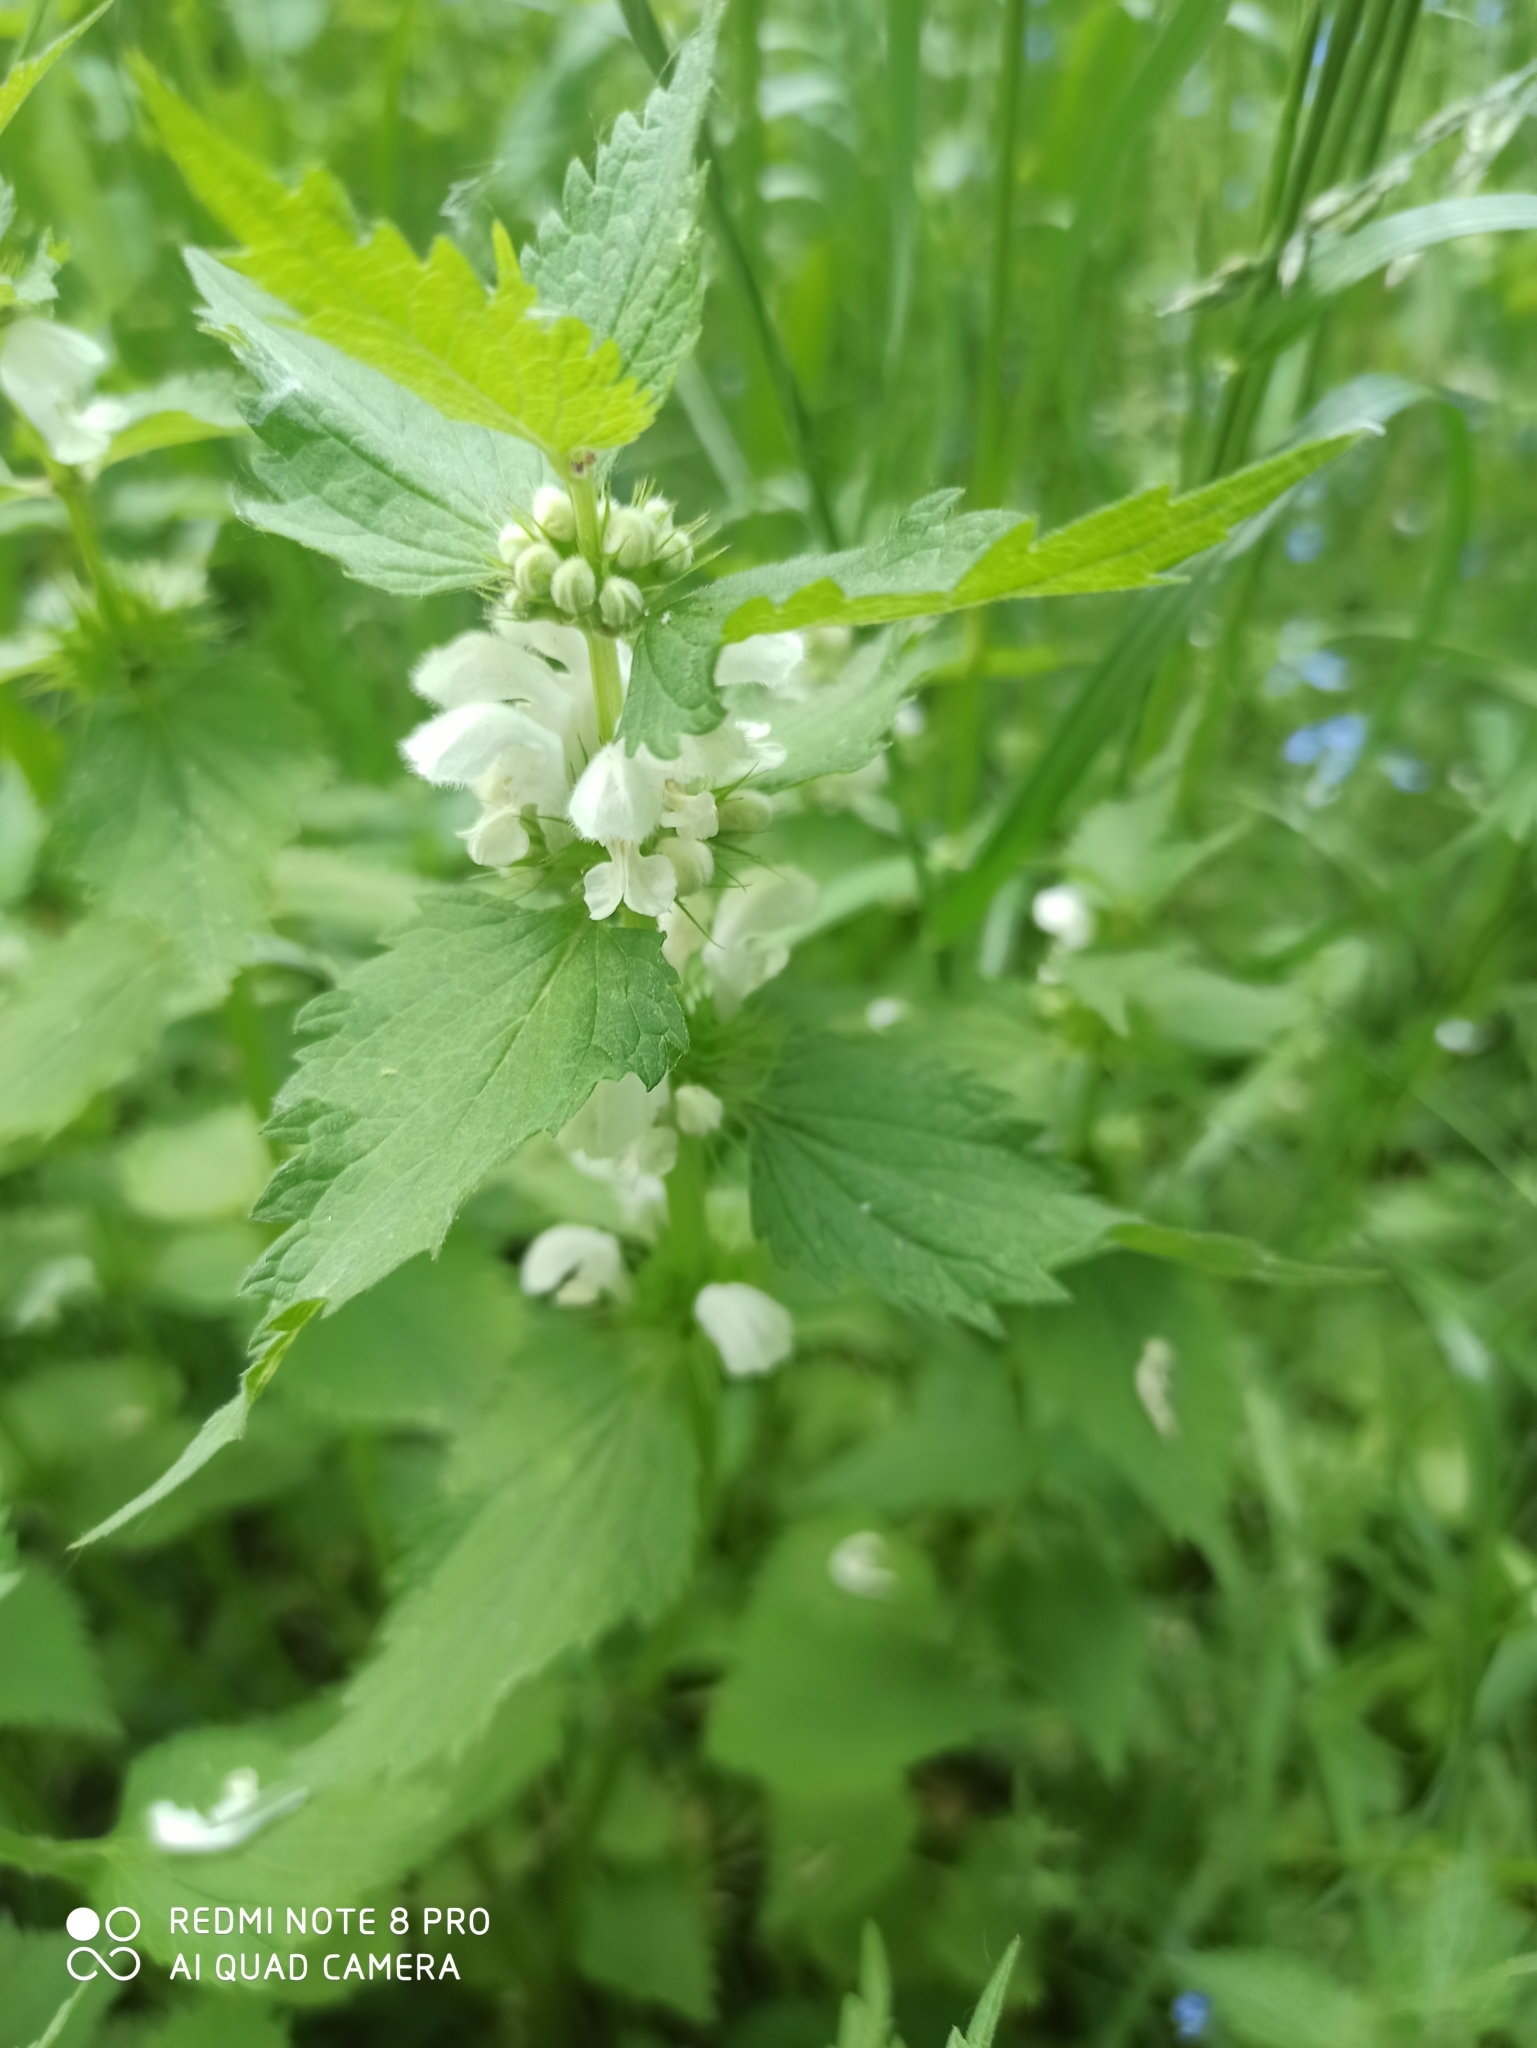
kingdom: Plantae
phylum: Tracheophyta
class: Magnoliopsida
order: Lamiales
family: Lamiaceae
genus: Lamium
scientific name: Lamium album
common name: White dead-nettle
